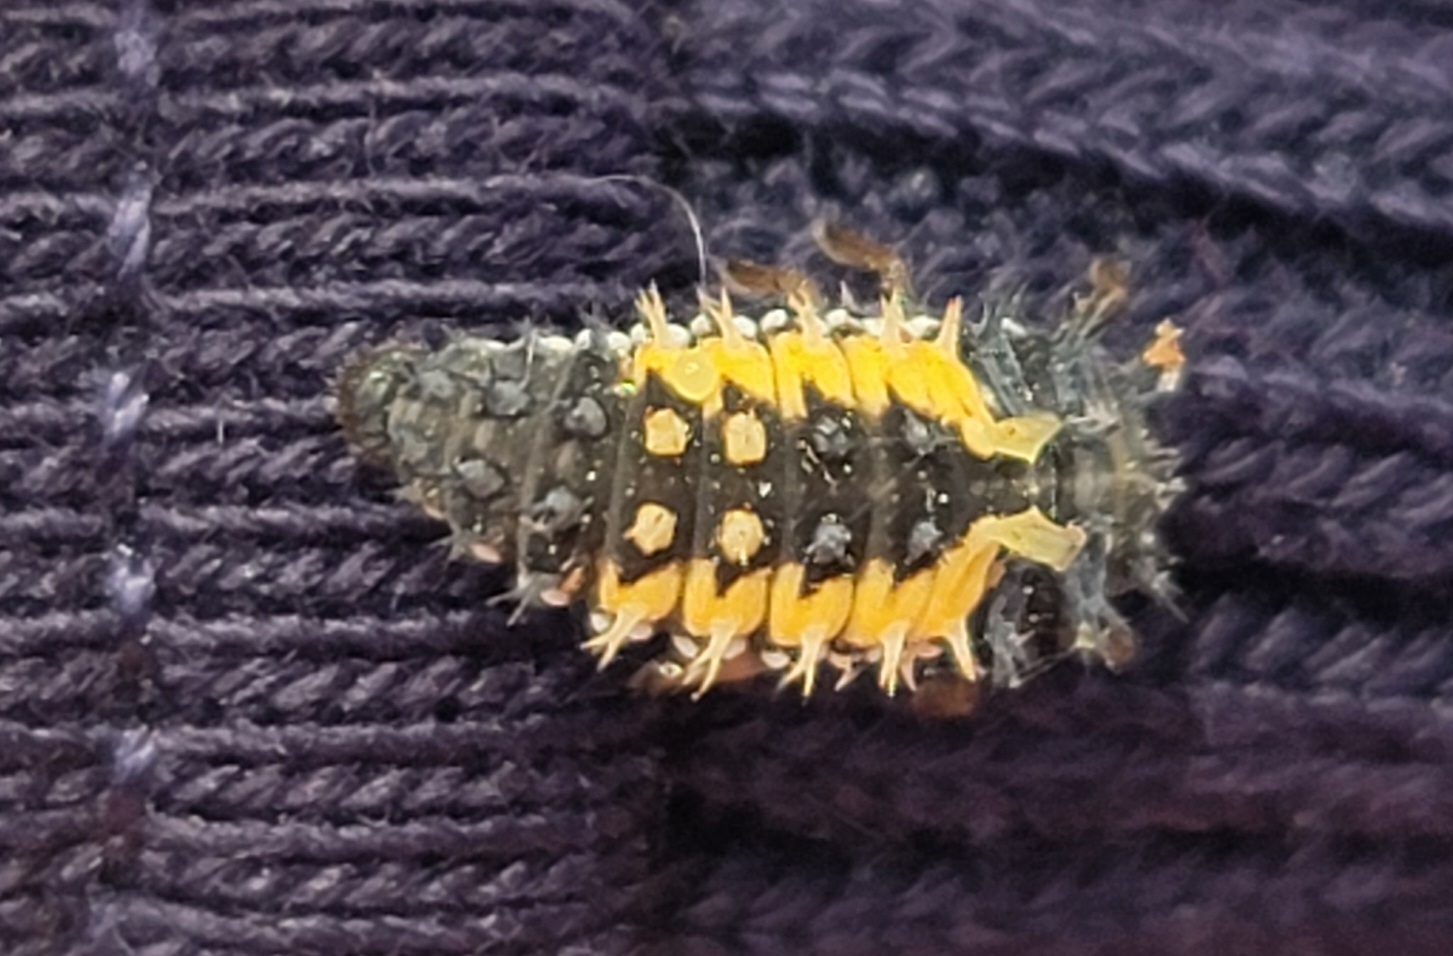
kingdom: Animalia
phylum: Arthropoda
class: Insecta
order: Coleoptera
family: Coccinellidae
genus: Harmonia
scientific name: Harmonia axyridis
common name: Harlequin ladybird
